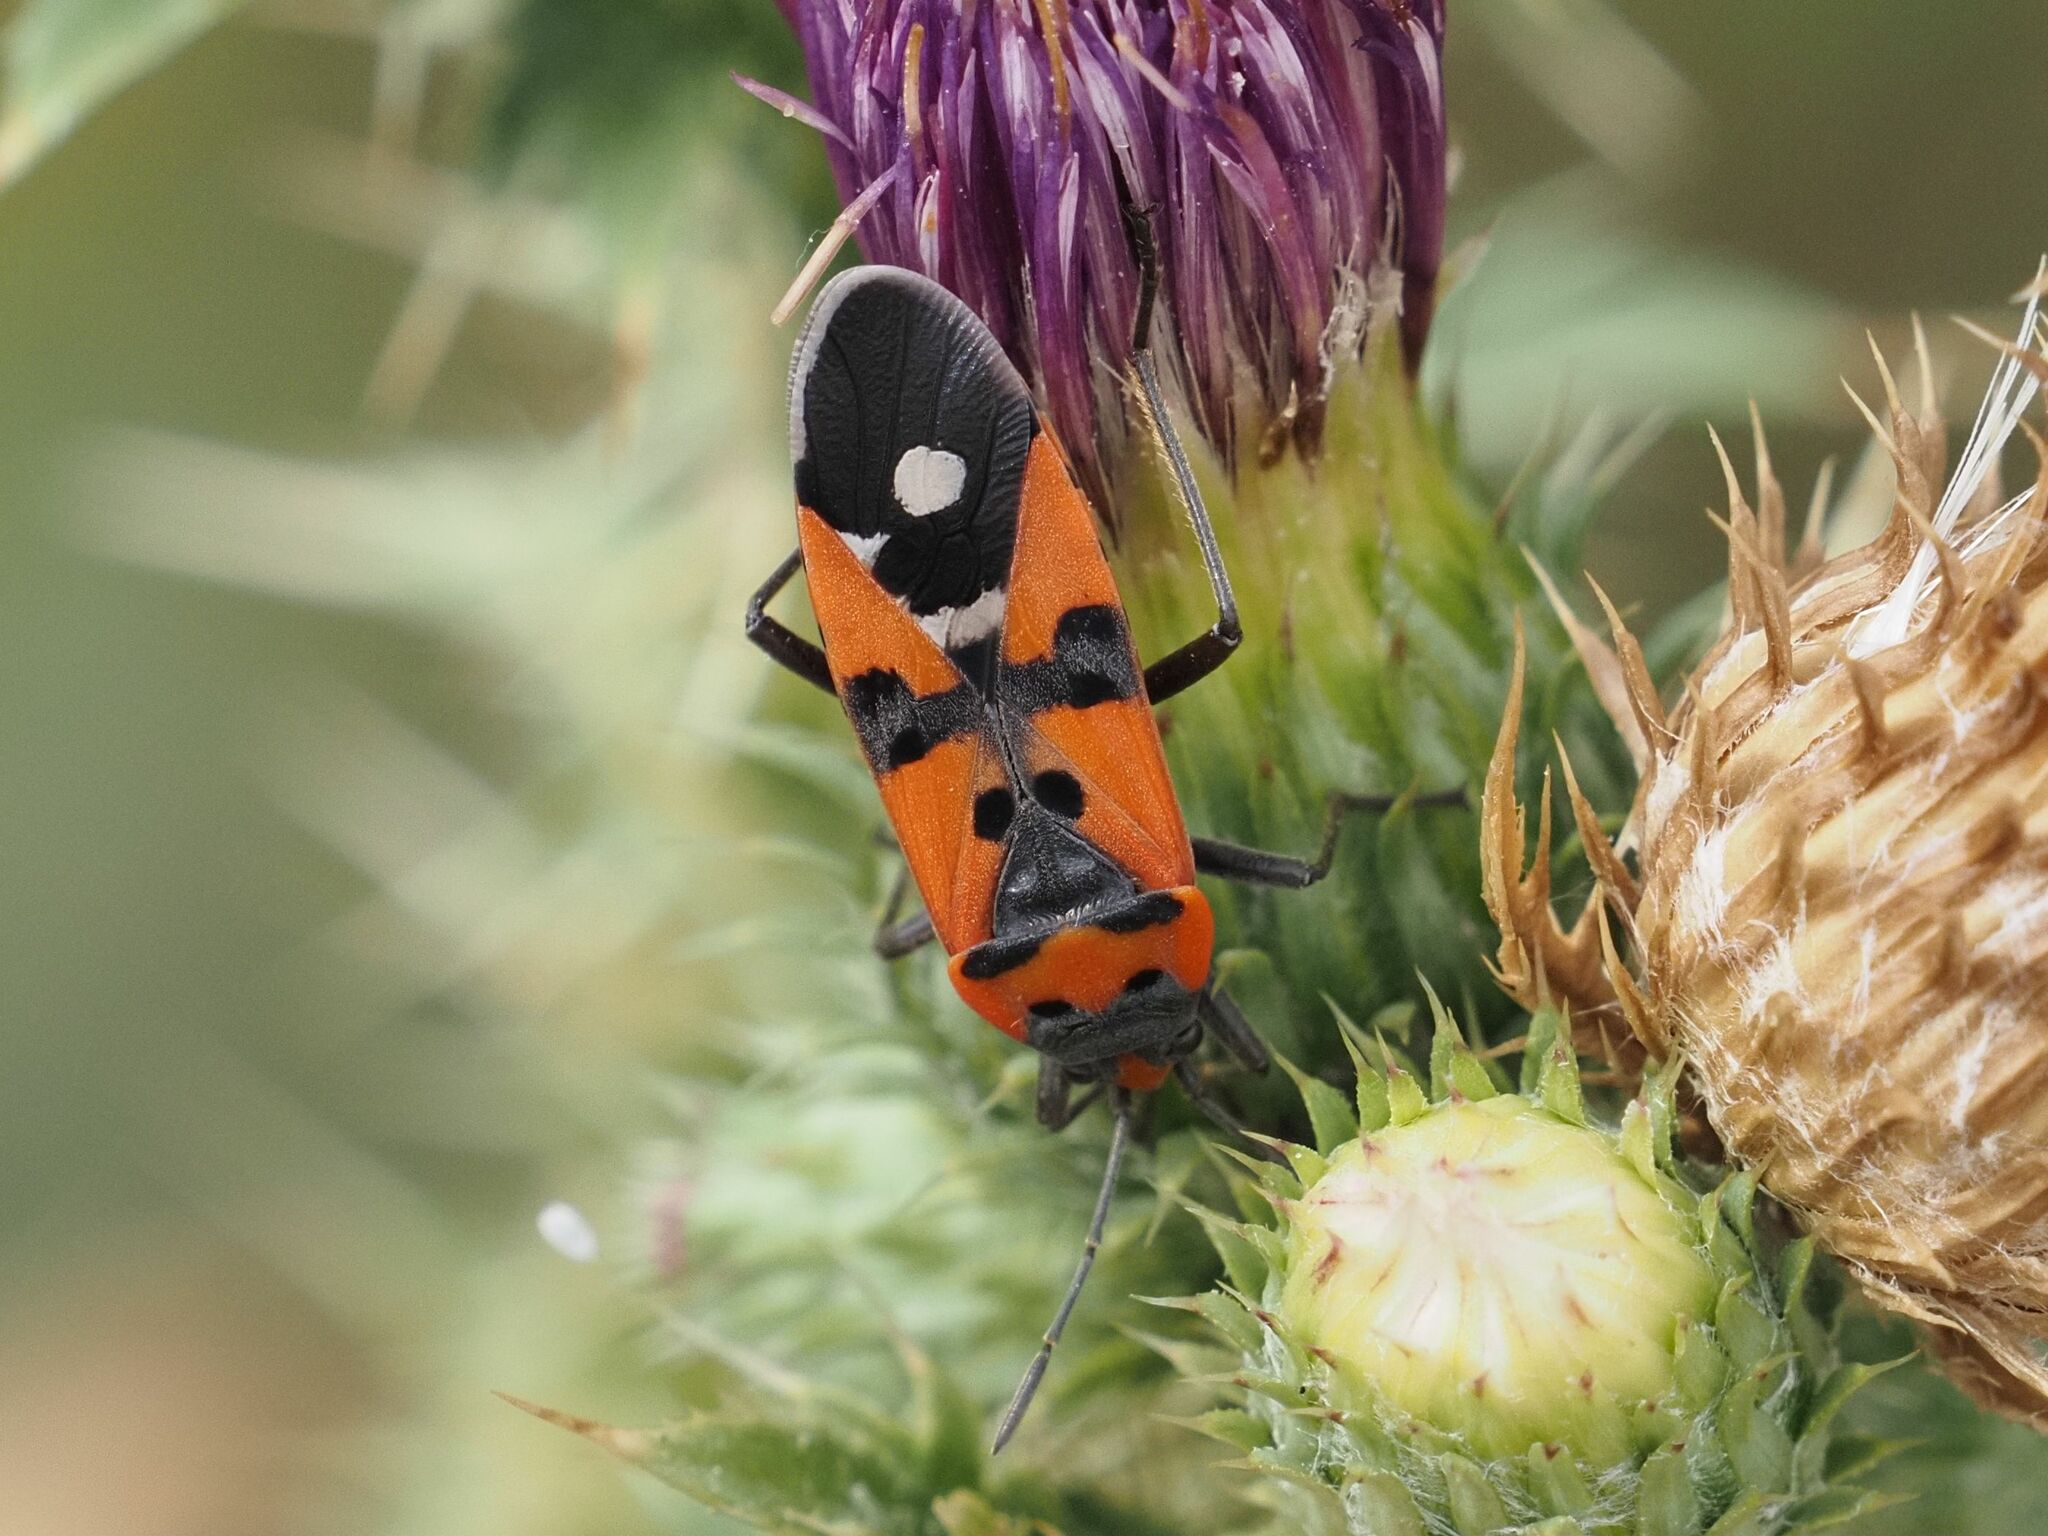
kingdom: Animalia
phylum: Arthropoda
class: Insecta
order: Hemiptera
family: Lygaeidae
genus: Lygaeus
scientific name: Lygaeus equestris
